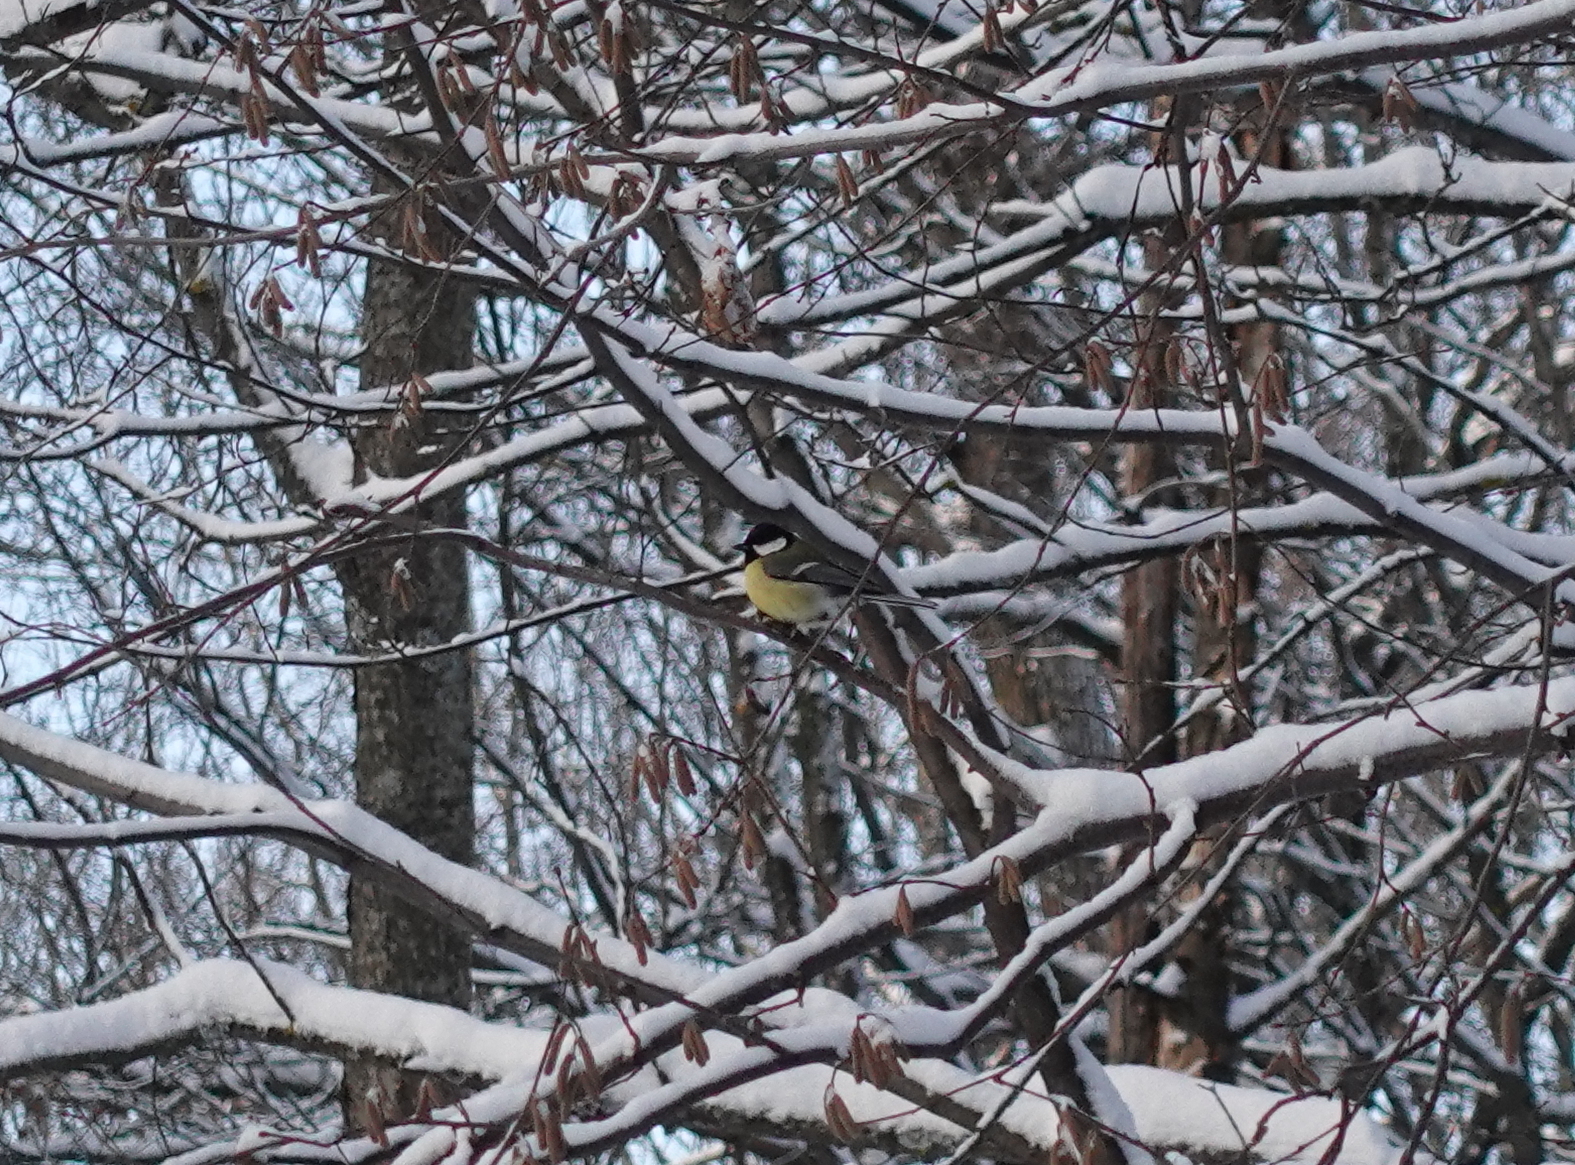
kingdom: Animalia
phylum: Chordata
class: Aves
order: Passeriformes
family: Paridae
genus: Parus
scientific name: Parus major
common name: Great tit
